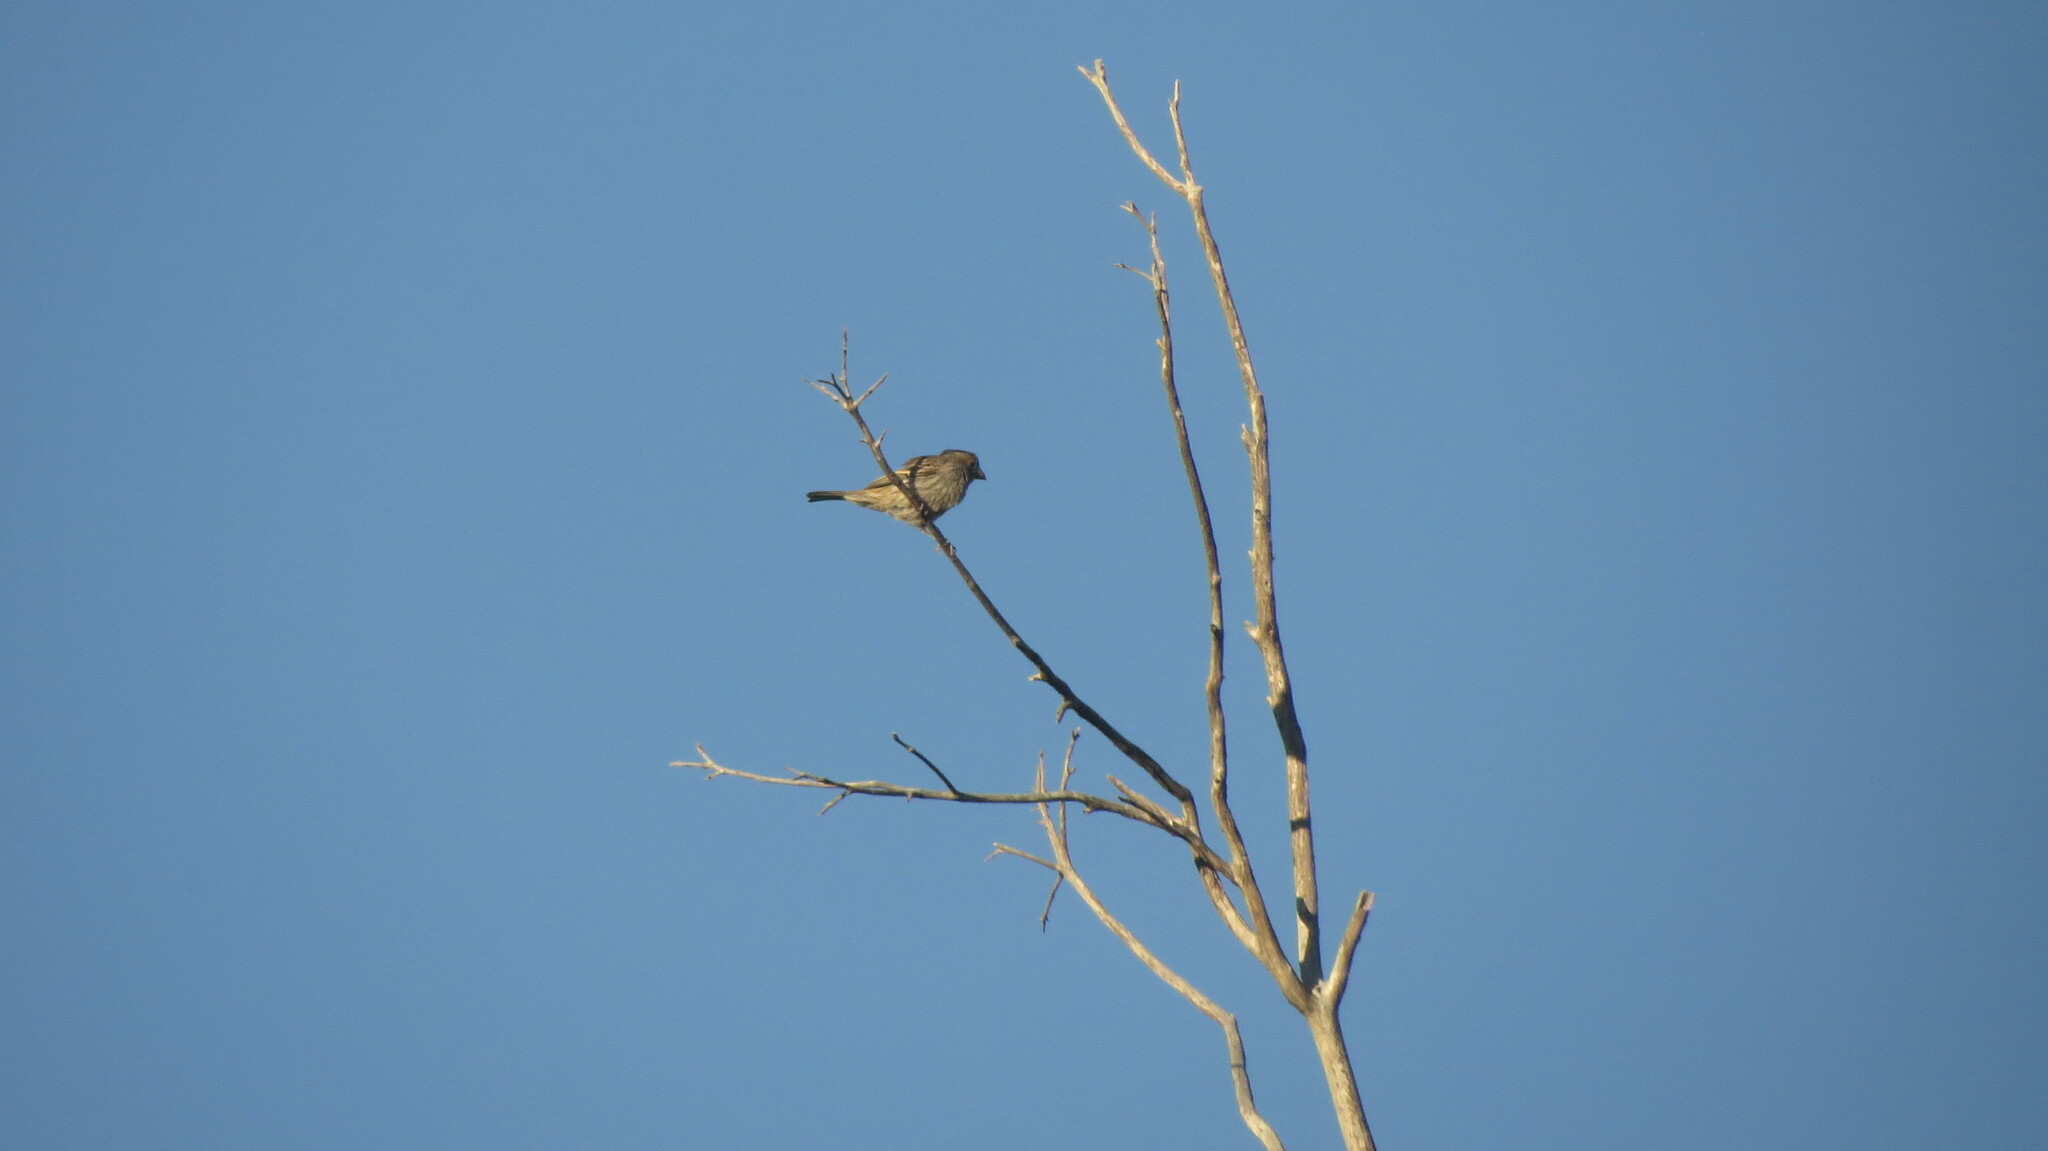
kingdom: Animalia
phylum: Chordata
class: Aves
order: Passeriformes
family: Fringillidae
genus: Haemorhous
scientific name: Haemorhous mexicanus
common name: House finch
